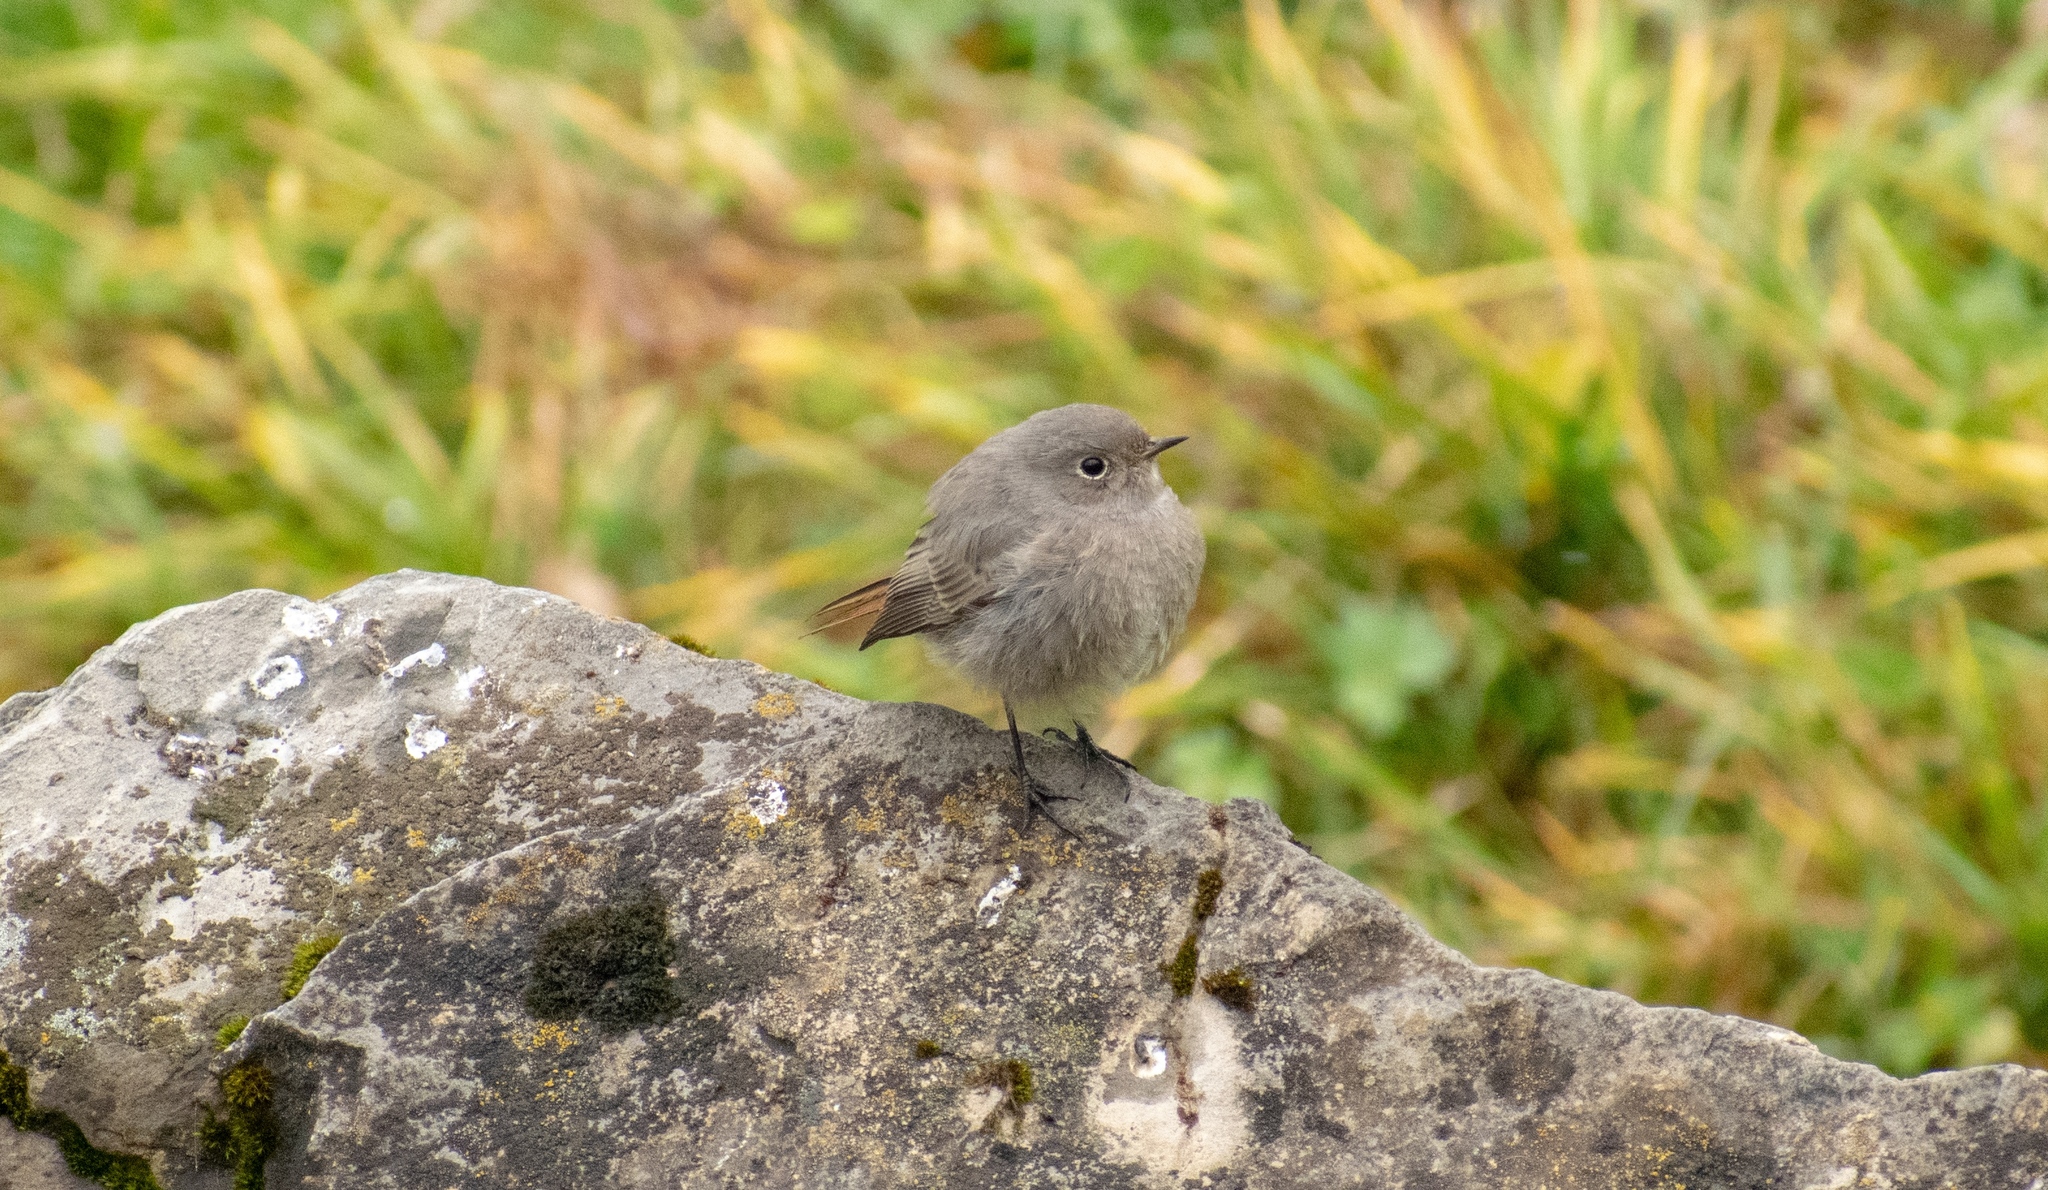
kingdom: Animalia
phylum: Chordata
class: Aves
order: Passeriformes
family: Muscicapidae
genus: Phoenicurus
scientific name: Phoenicurus ochruros
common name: Black redstart
